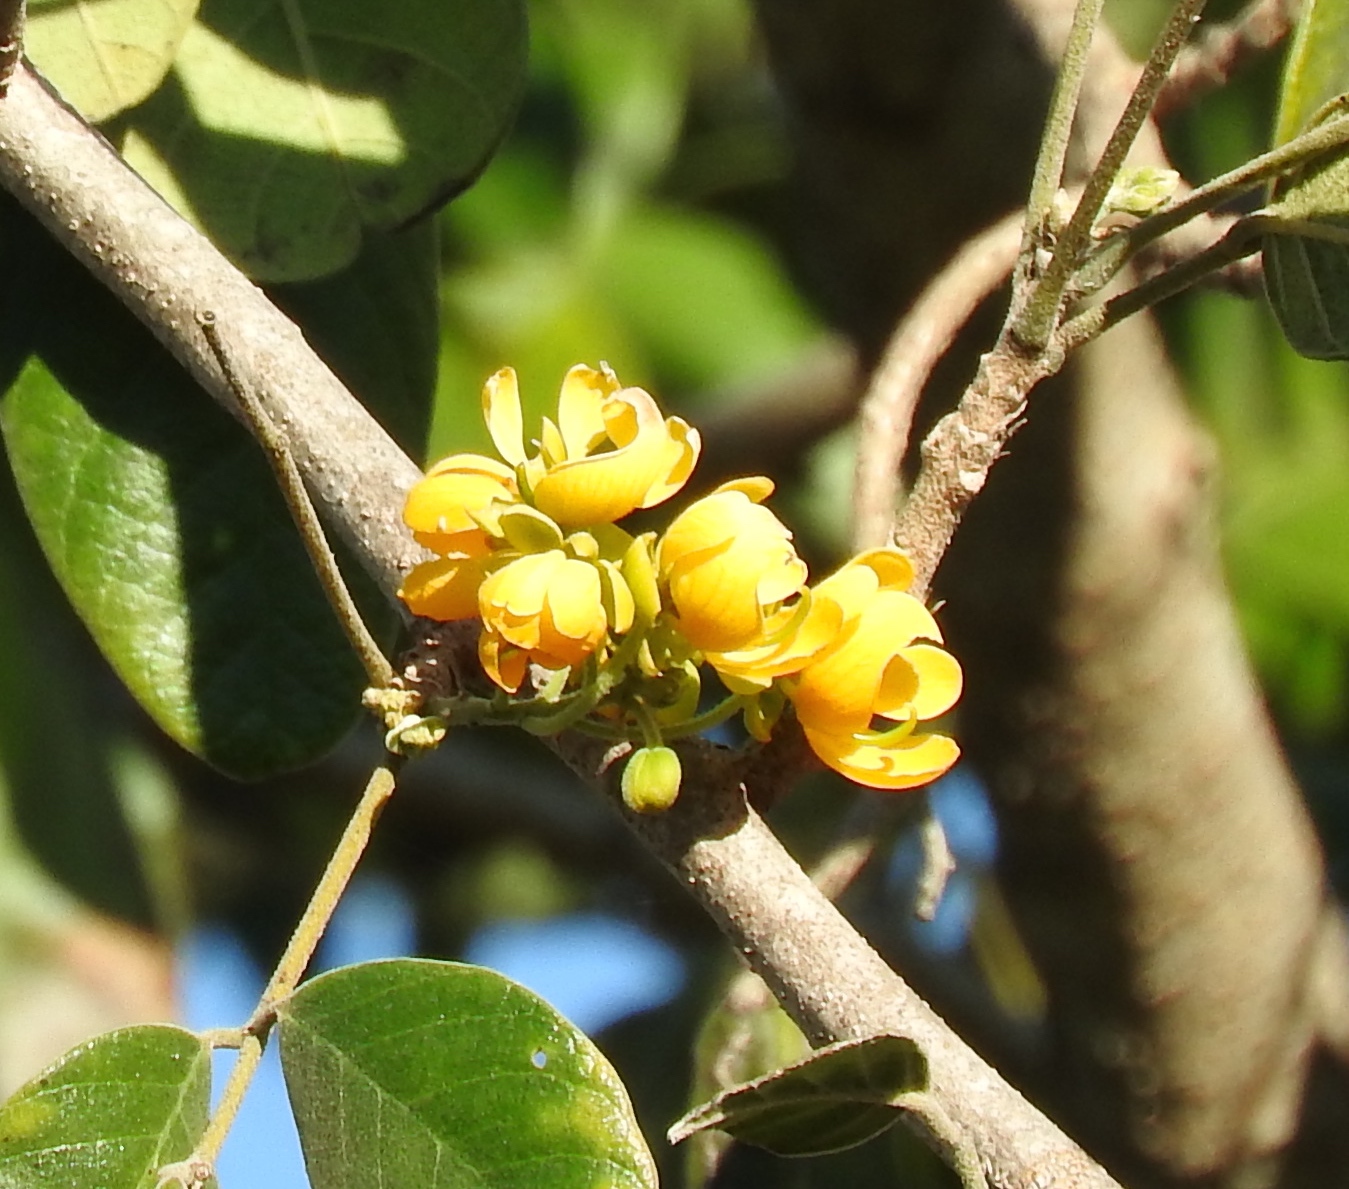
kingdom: Plantae
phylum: Tracheophyta
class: Magnoliopsida
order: Fabales
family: Fabaceae
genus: Senna
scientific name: Senna atomaria
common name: Flor de san jose
